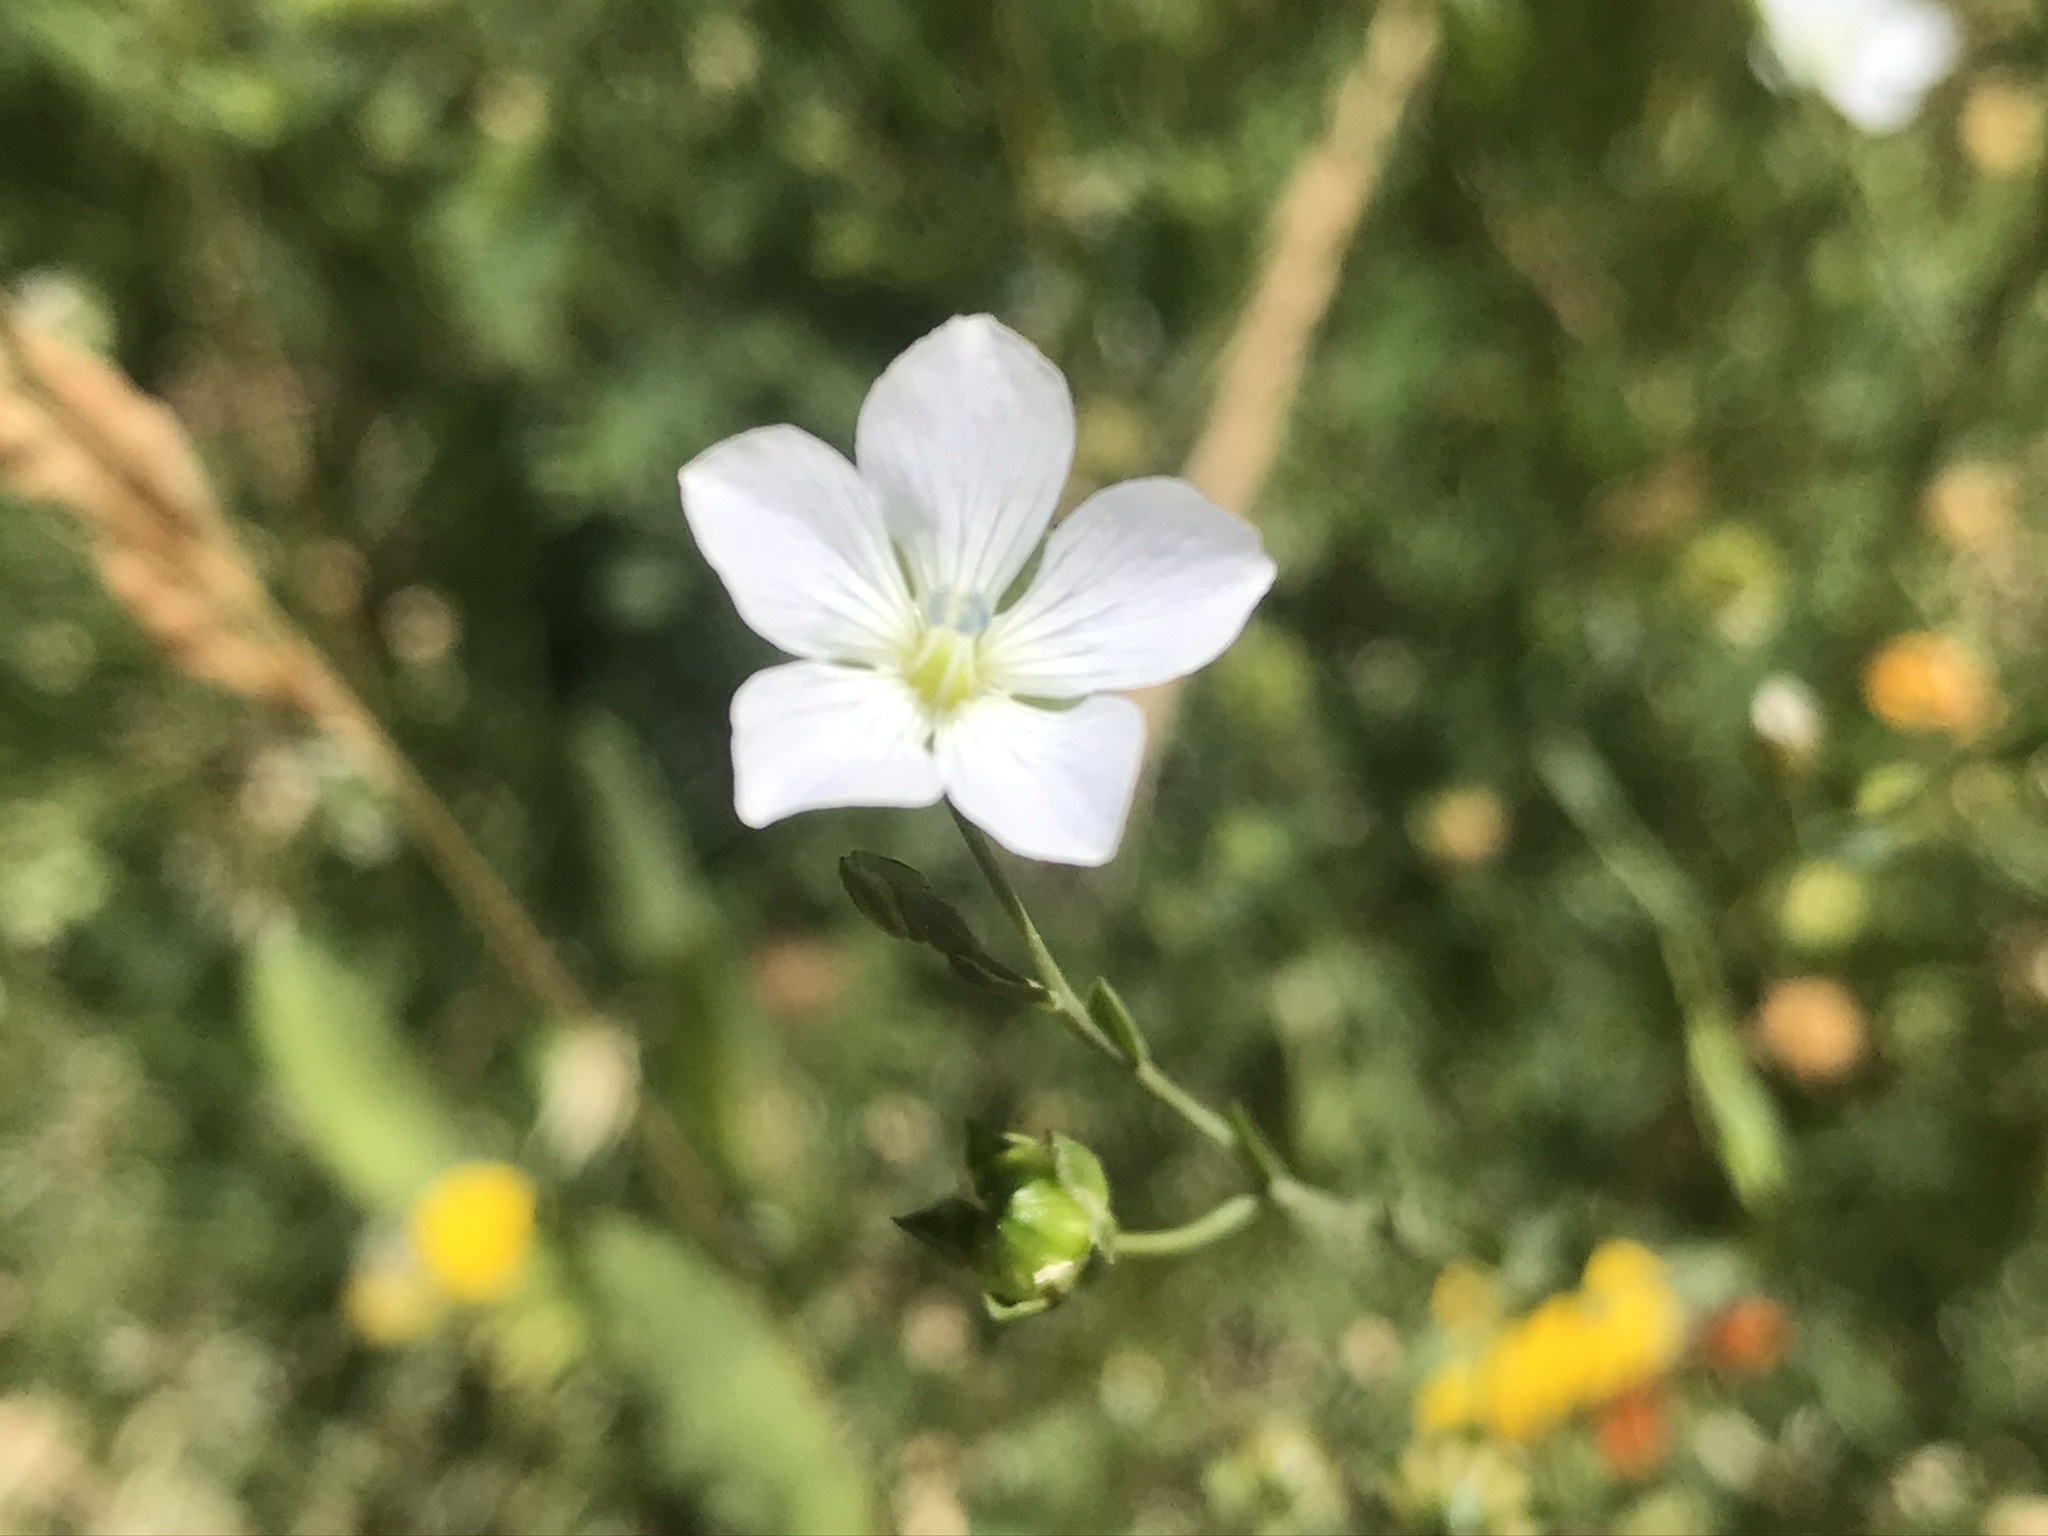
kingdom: Plantae
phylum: Tracheophyta
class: Magnoliopsida
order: Malpighiales
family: Linaceae
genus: Linum
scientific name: Linum bienne
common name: Pale flax
